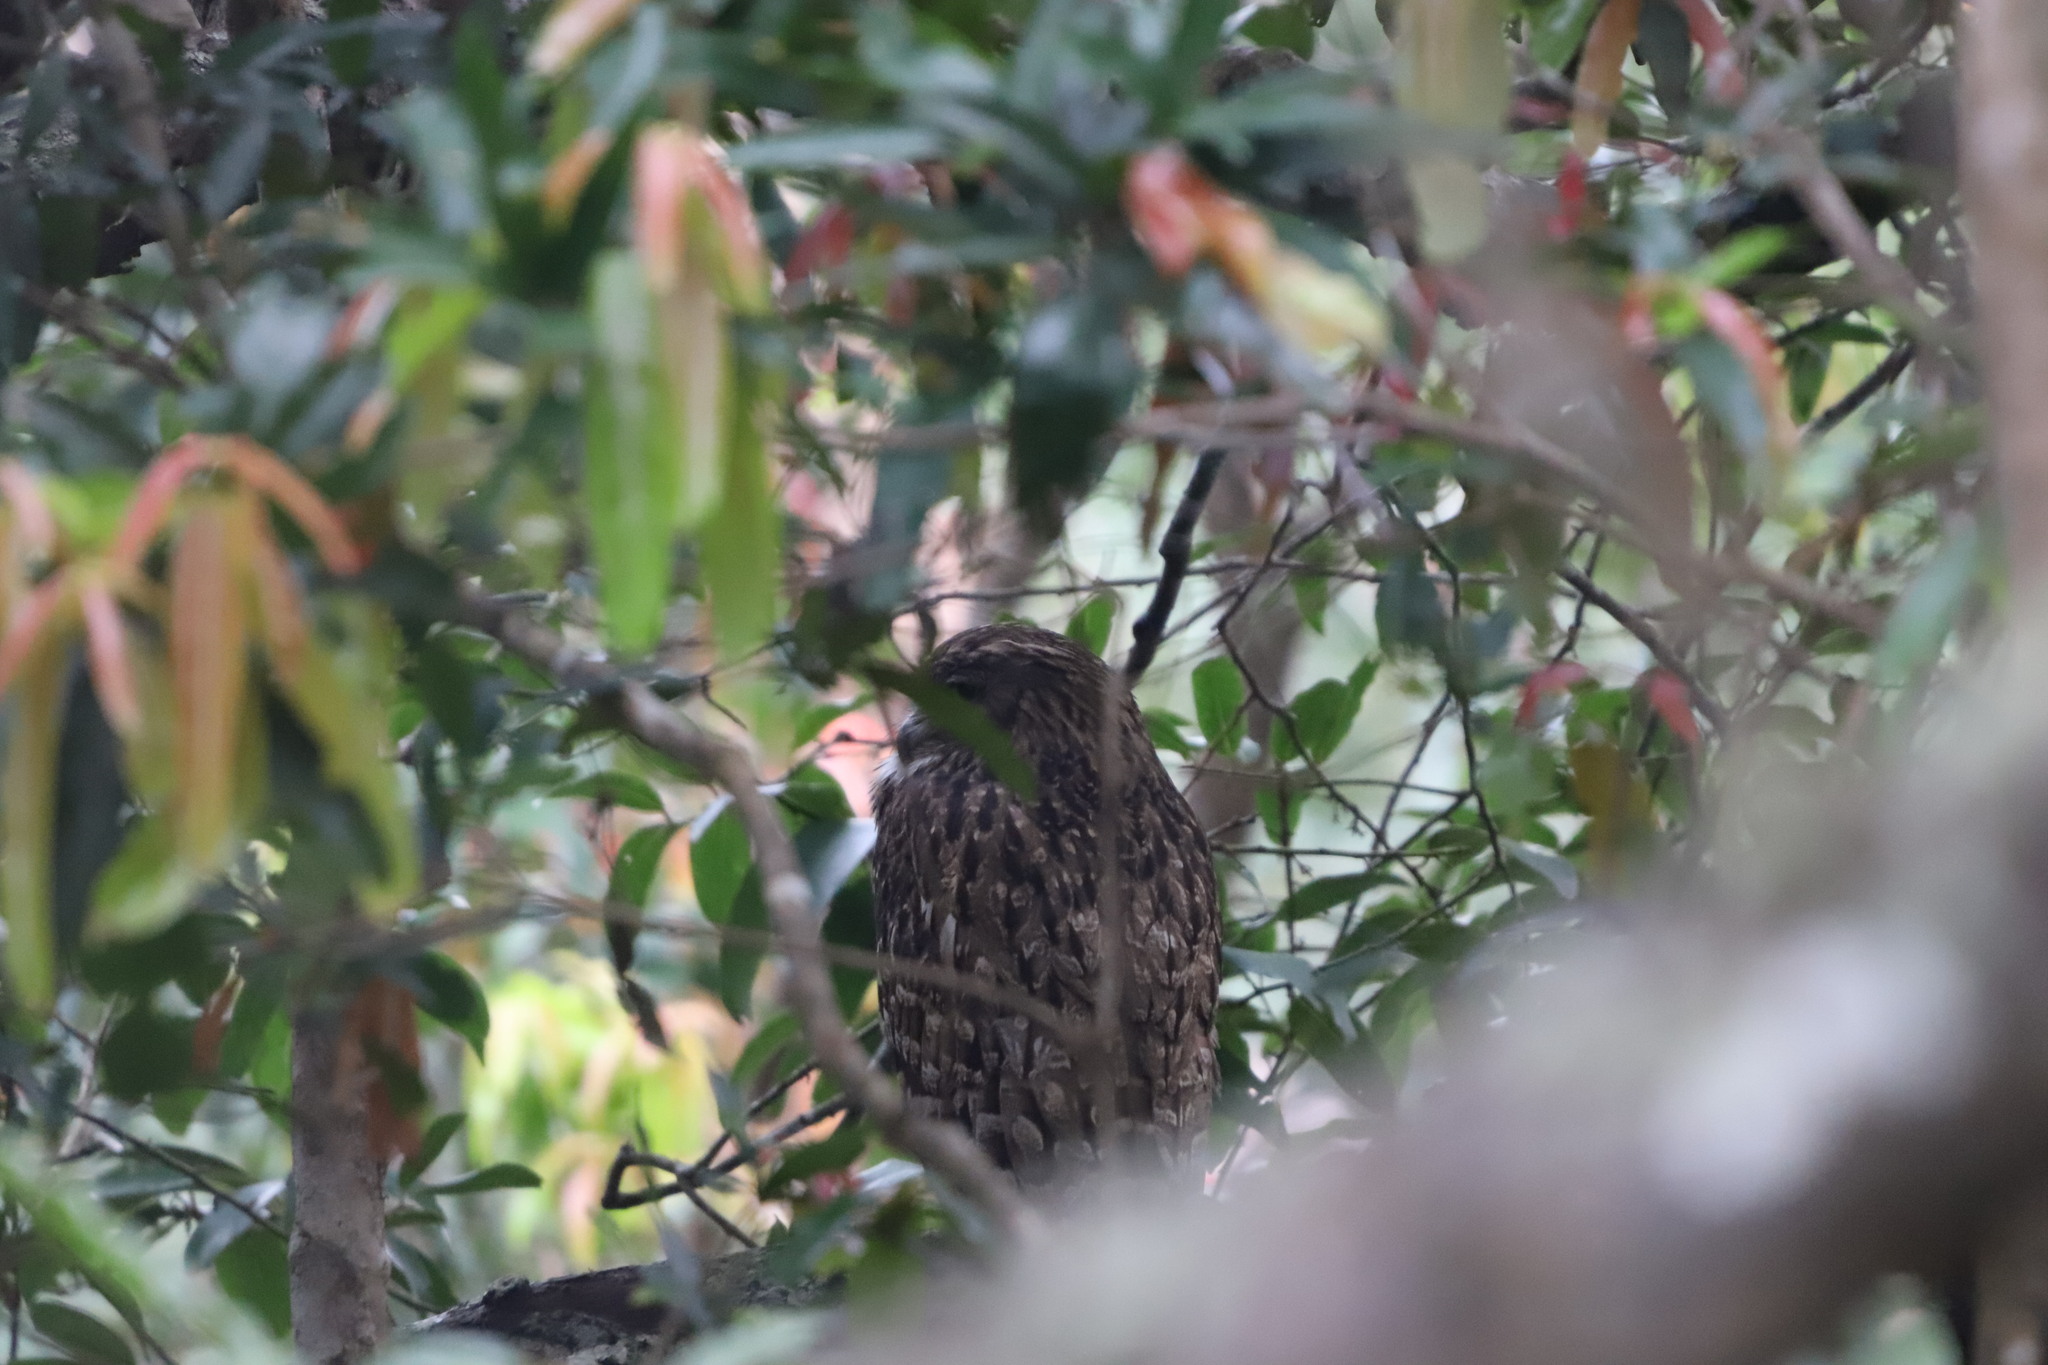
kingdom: Animalia
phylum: Chordata
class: Aves
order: Strigiformes
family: Strigidae
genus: Ketupa
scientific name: Ketupa zeylonensis
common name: Brown fish owl
